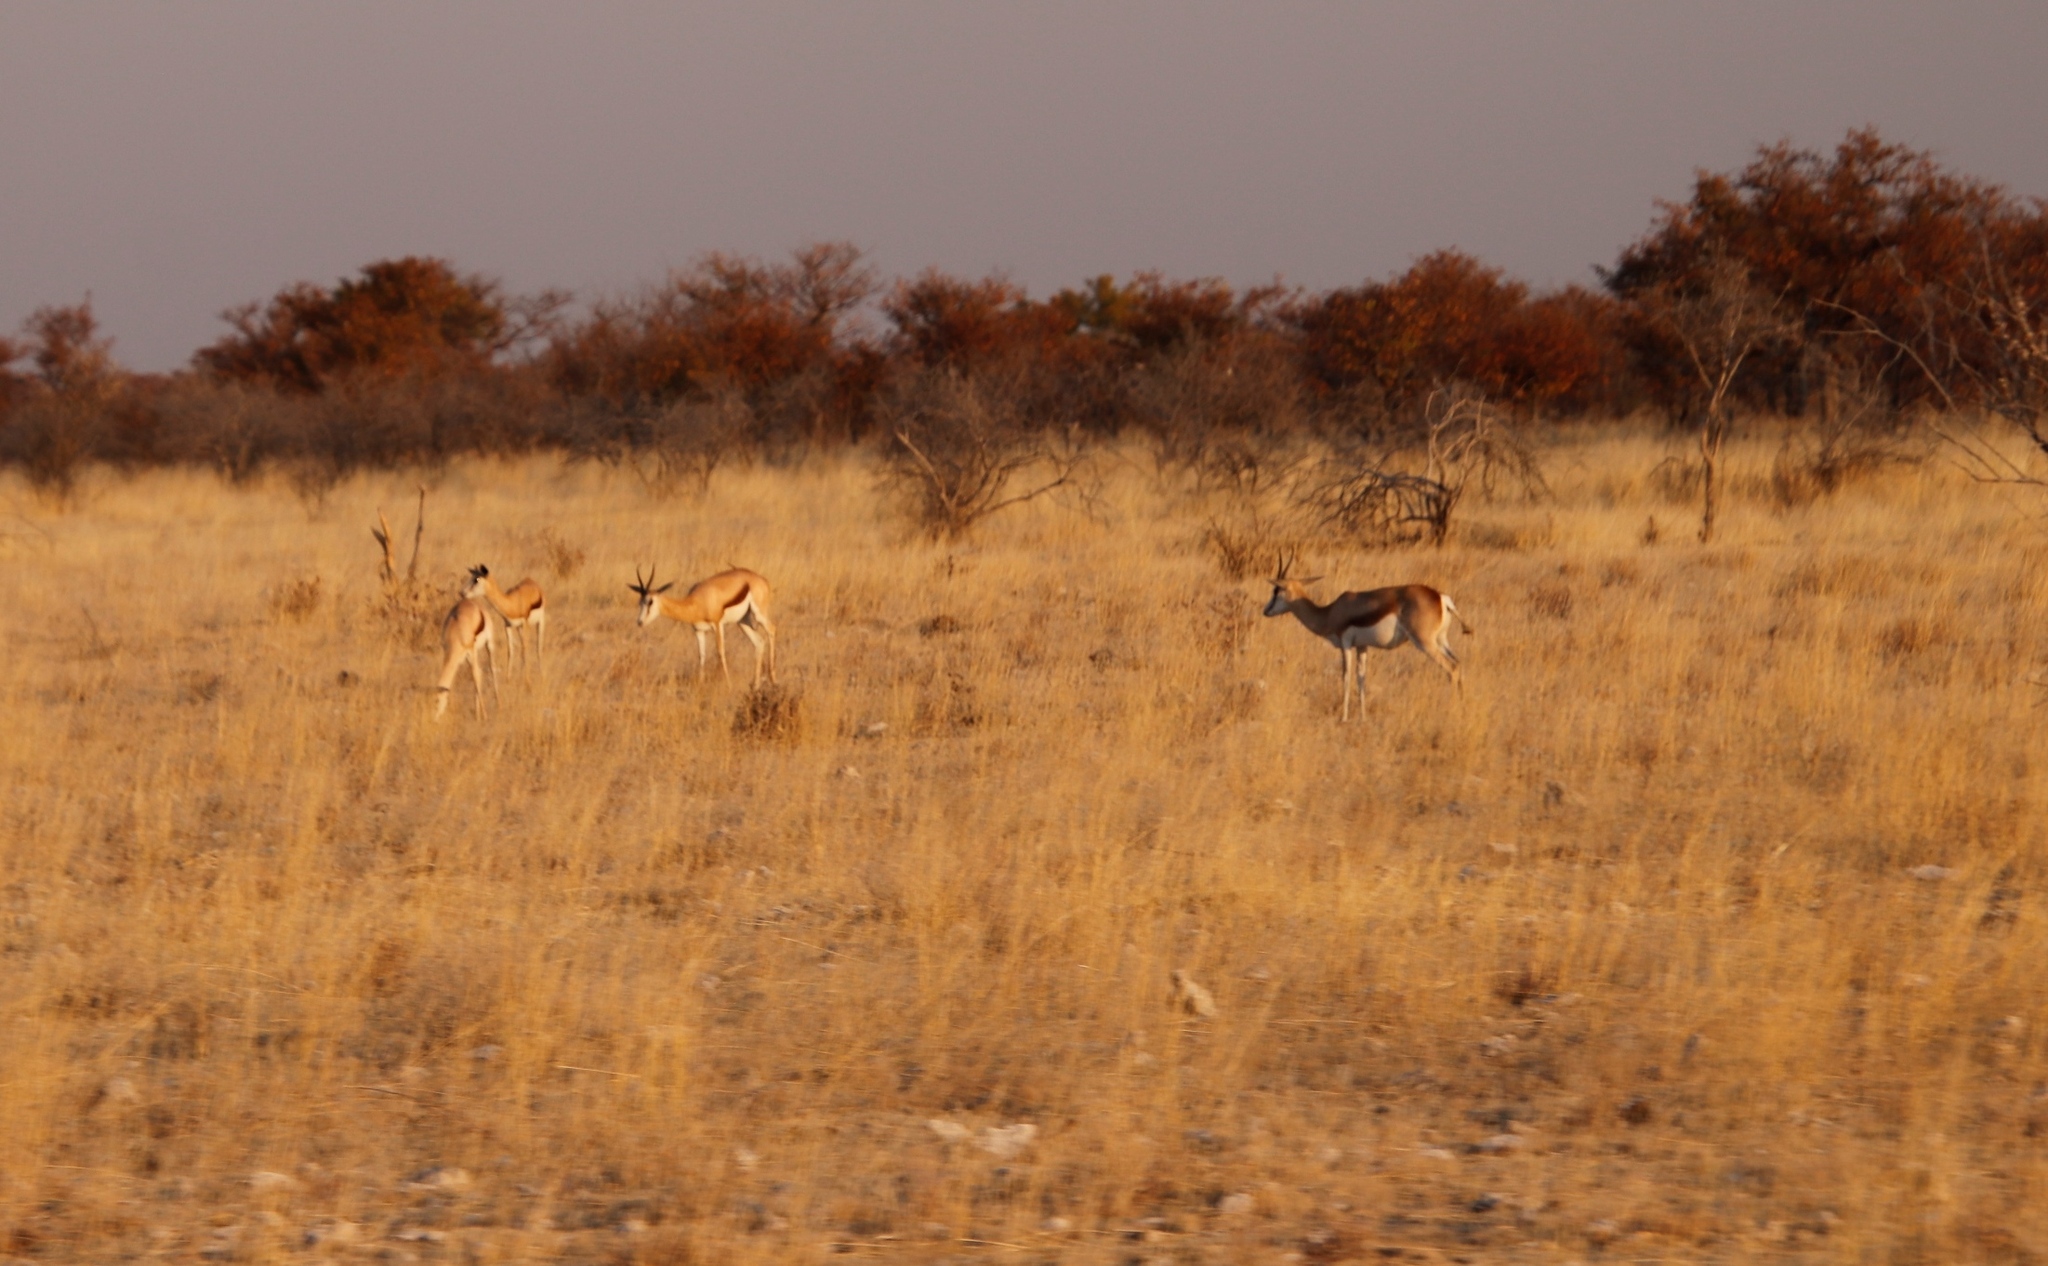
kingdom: Animalia
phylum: Chordata
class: Mammalia
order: Artiodactyla
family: Bovidae
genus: Antidorcas
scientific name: Antidorcas marsupialis
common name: Springbok
